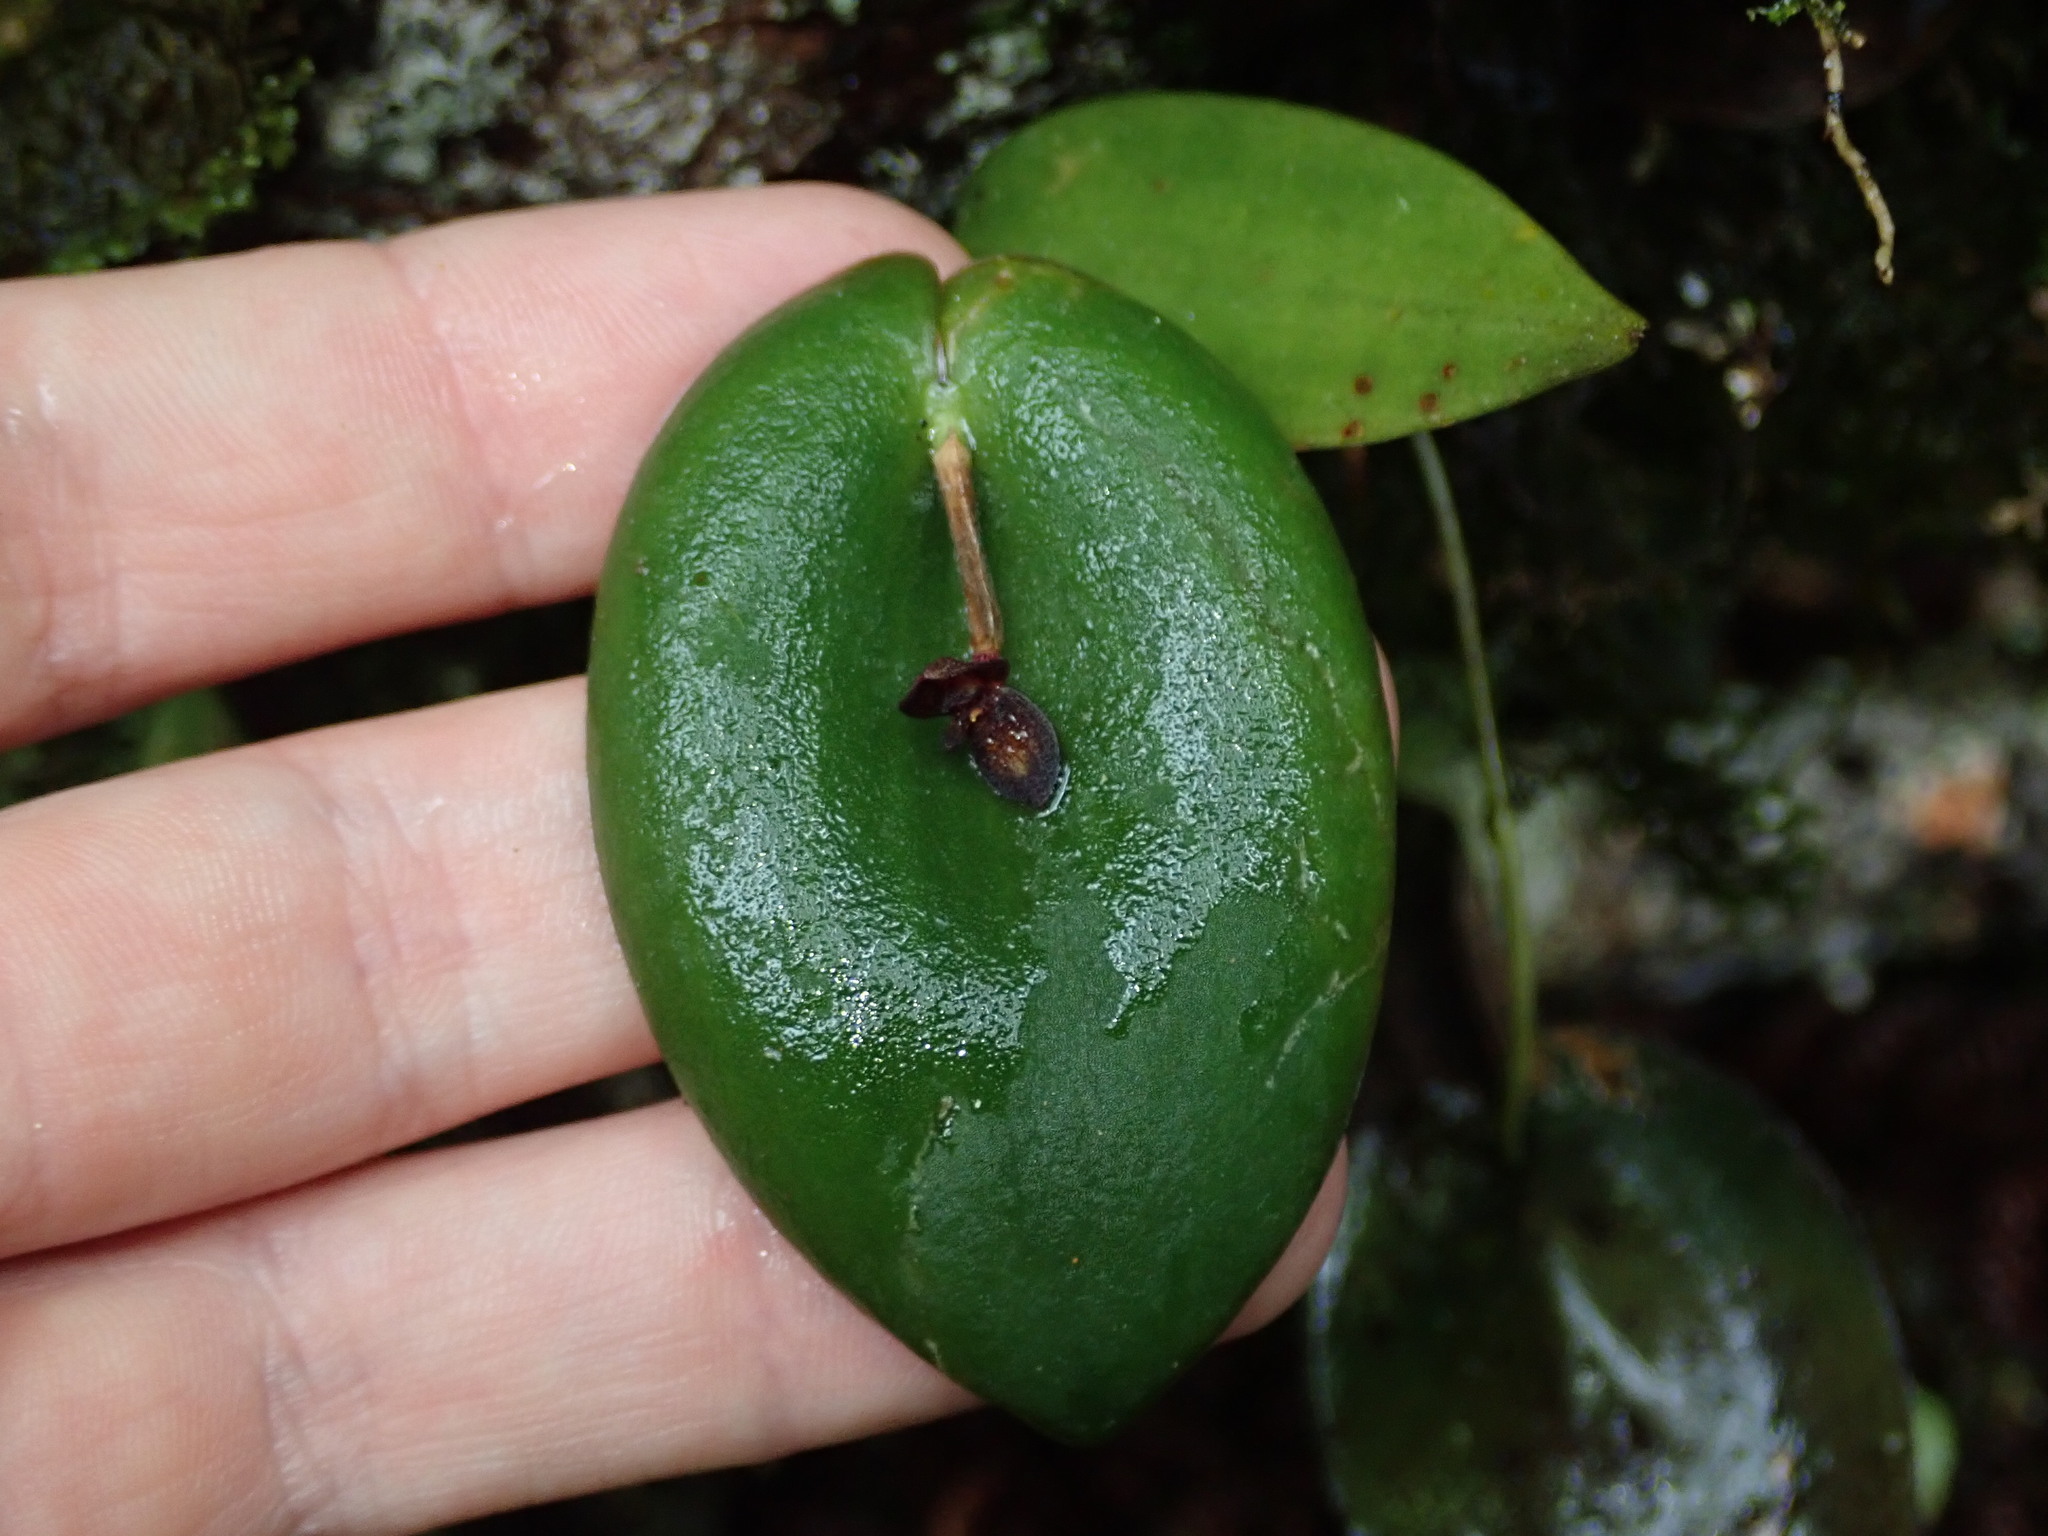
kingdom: Plantae
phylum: Tracheophyta
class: Liliopsida
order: Asparagales
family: Orchidaceae
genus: Pleurothallis
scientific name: Pleurothallis phymatodea
